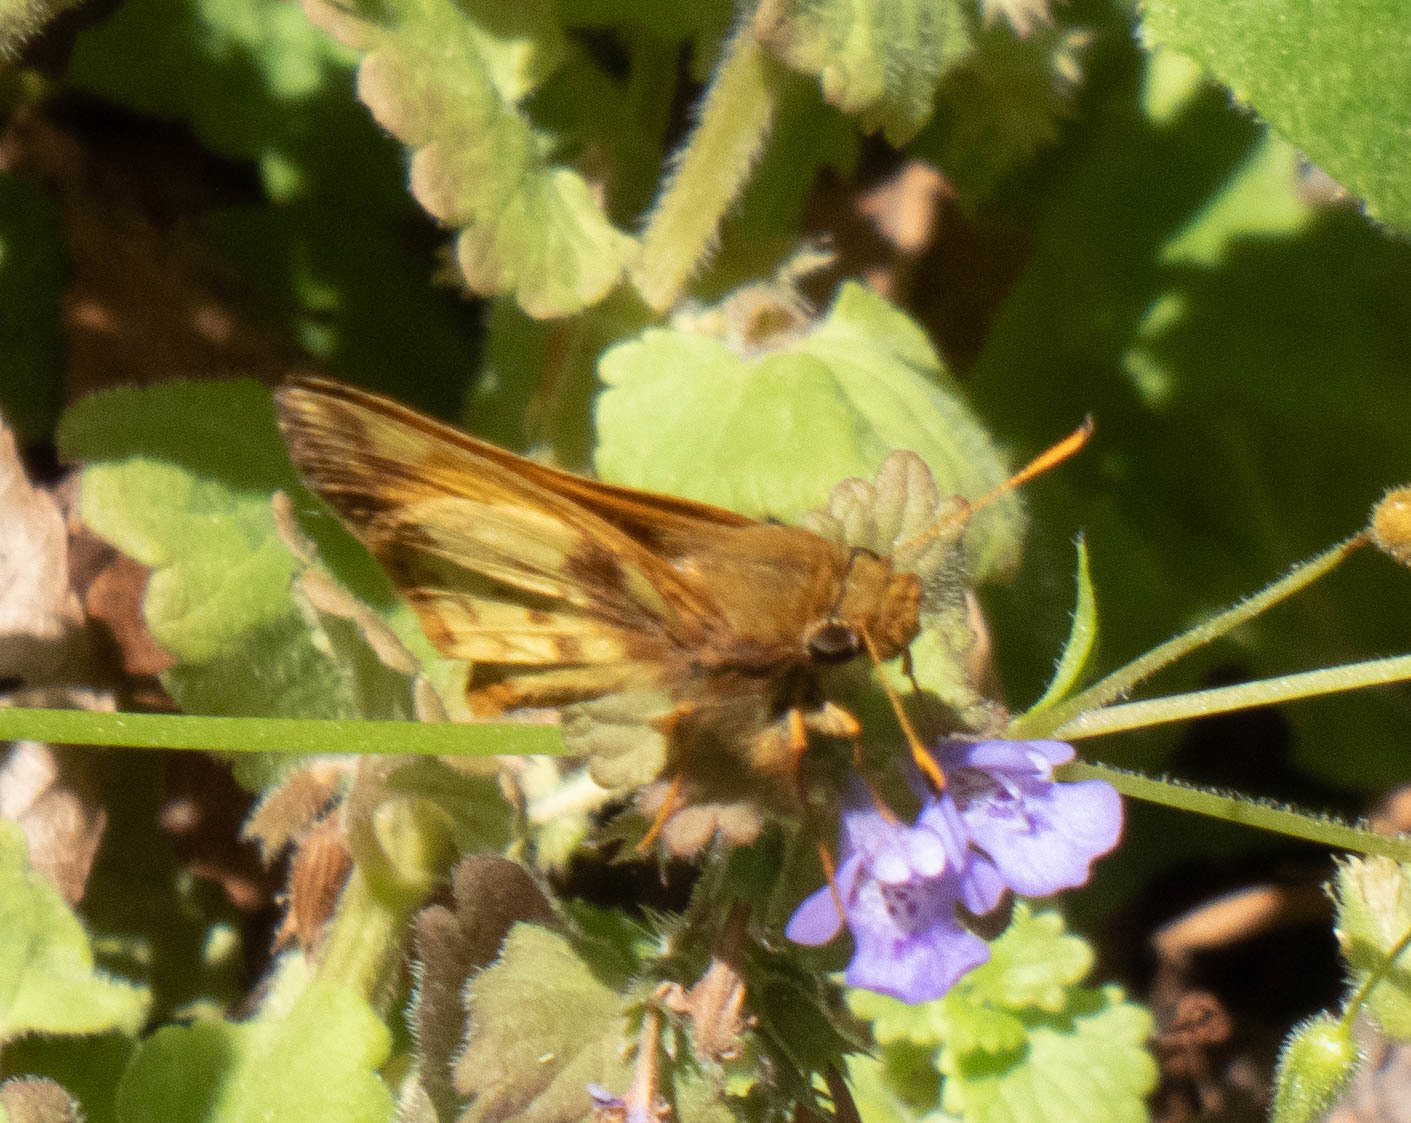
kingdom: Animalia
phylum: Arthropoda
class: Insecta
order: Lepidoptera
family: Hesperiidae
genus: Lon
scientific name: Lon zabulon
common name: Zabulon skipper
